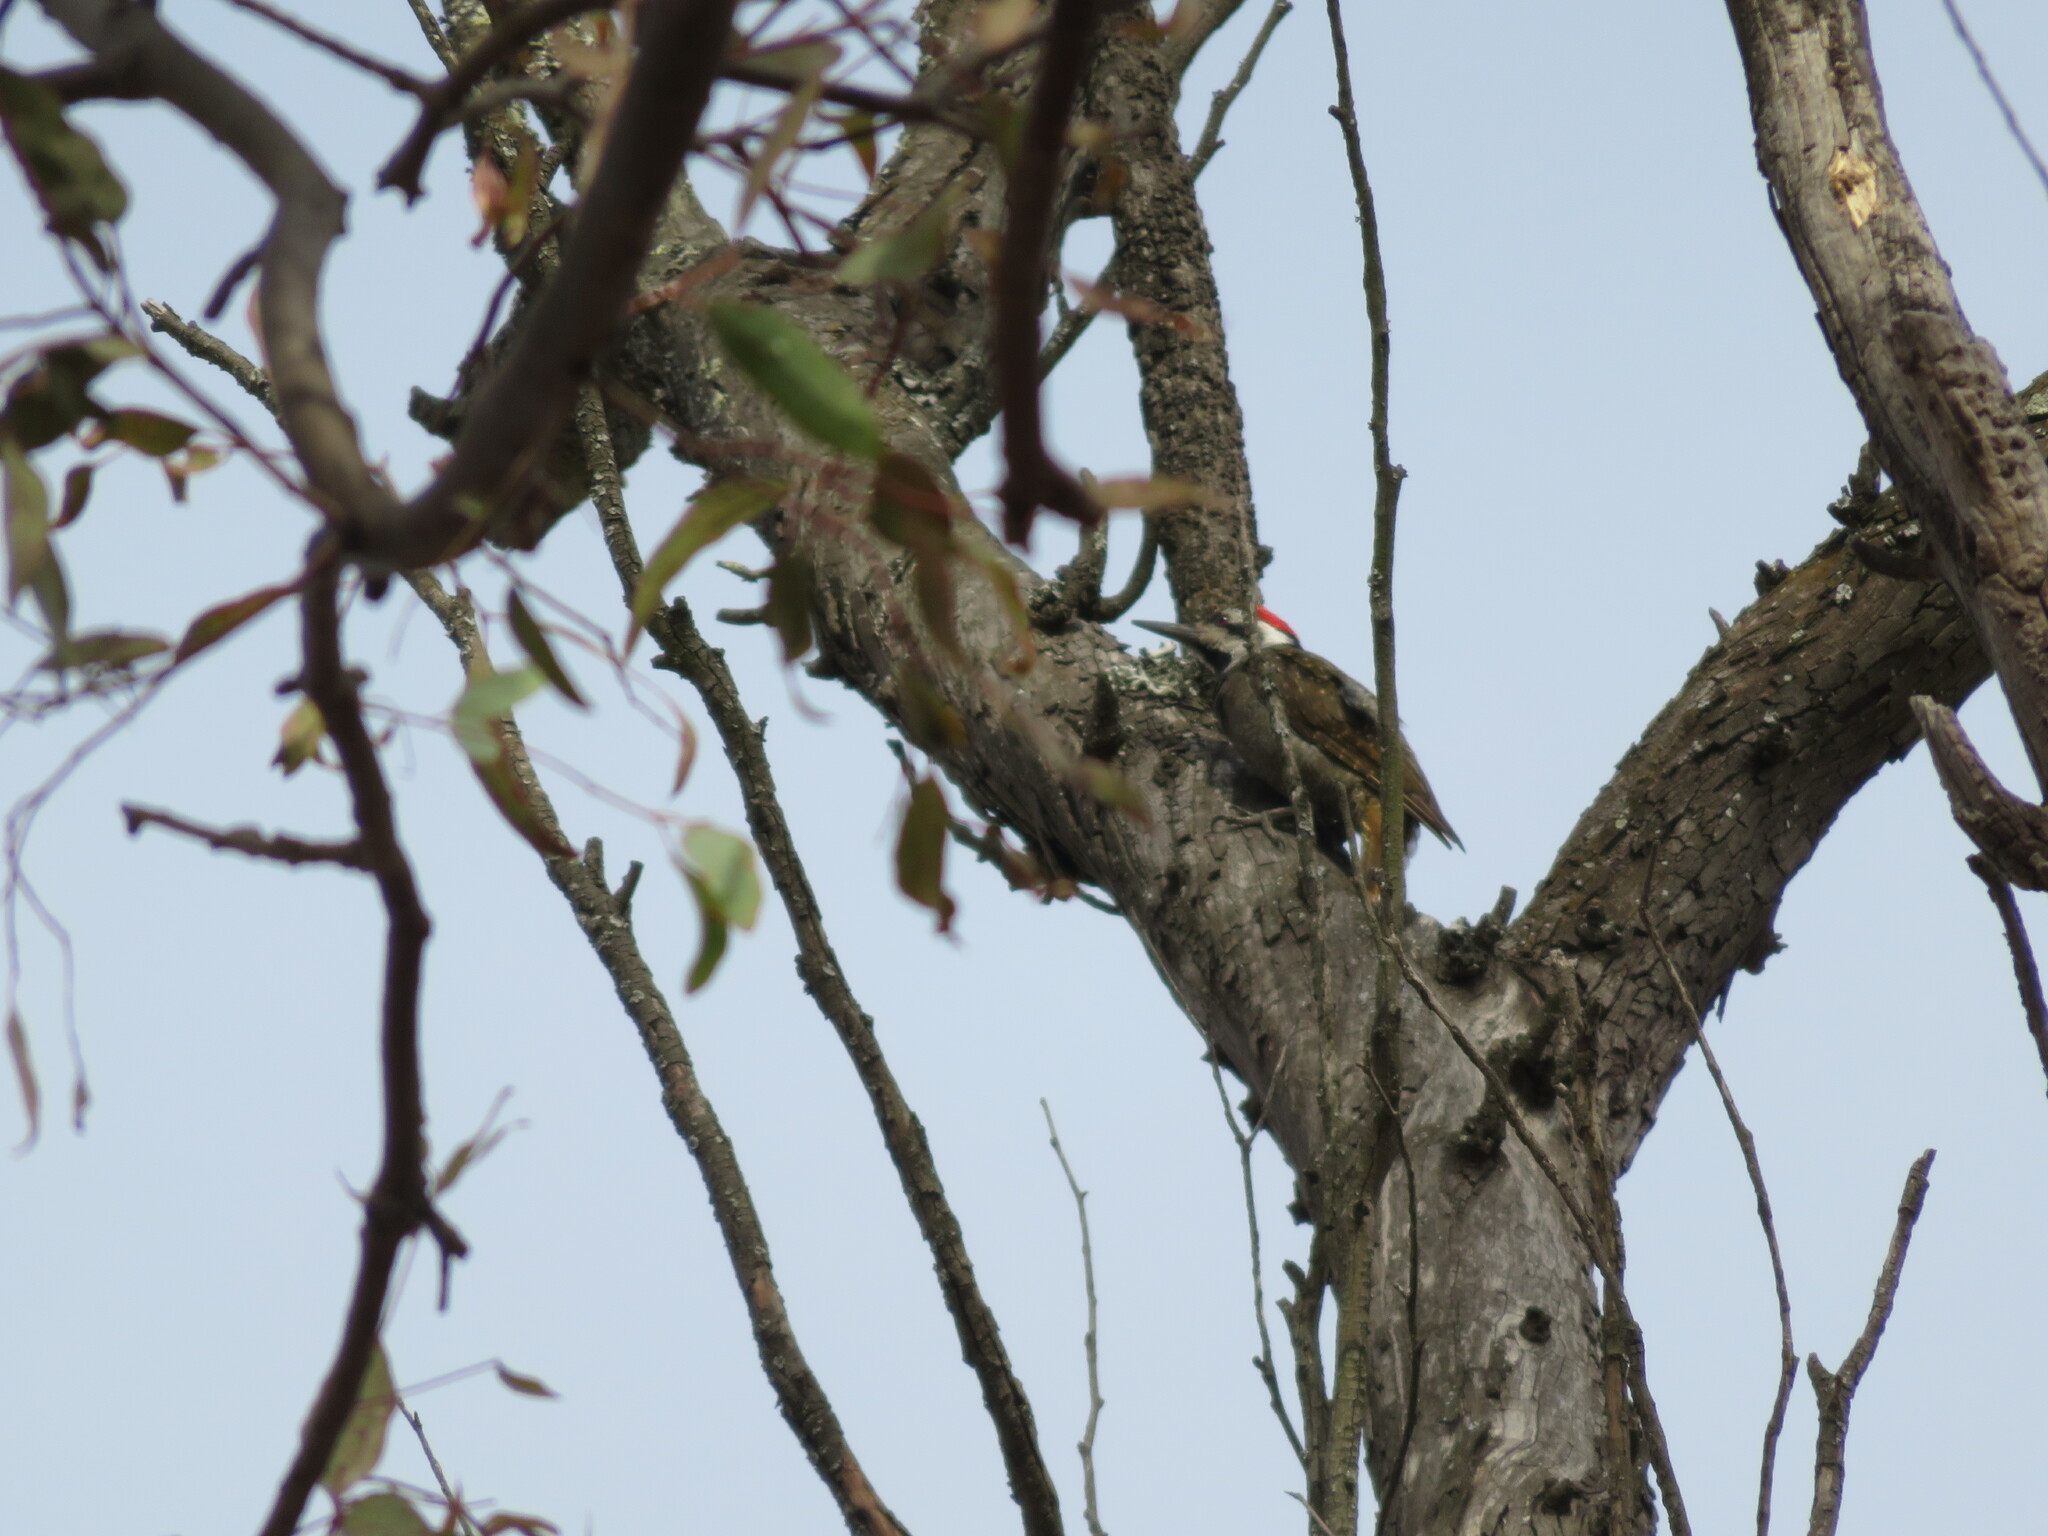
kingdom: Animalia
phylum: Chordata
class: Aves
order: Piciformes
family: Picidae
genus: Chloropicus
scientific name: Chloropicus namaquus
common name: Bearded woodpecker
